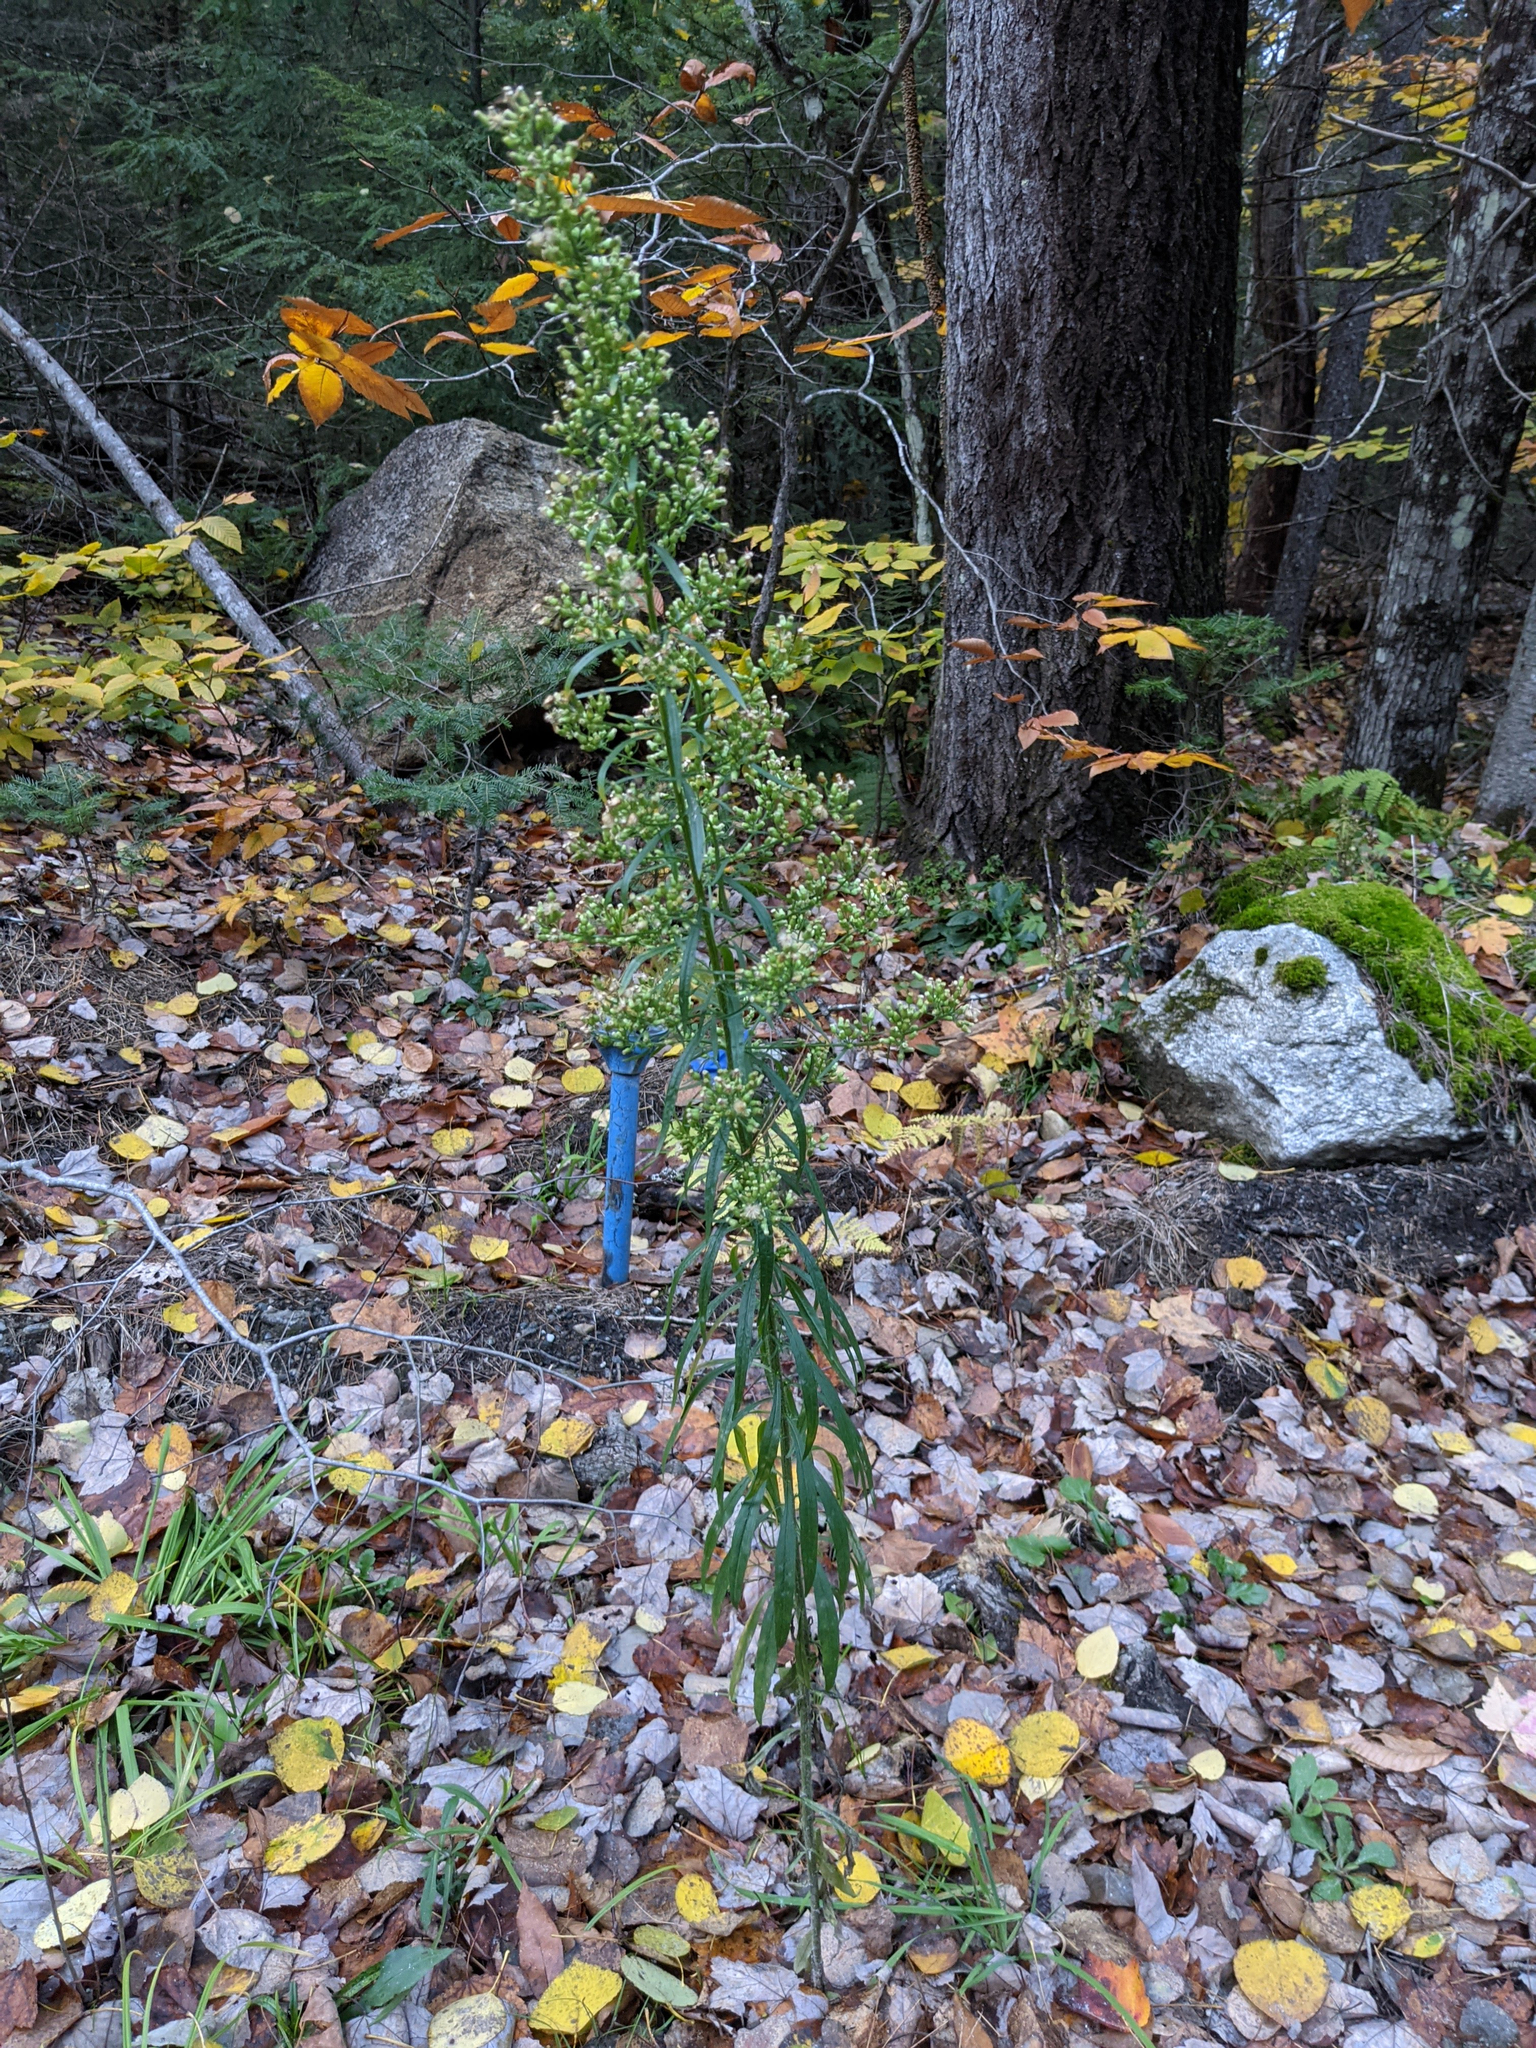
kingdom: Plantae
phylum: Tracheophyta
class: Magnoliopsida
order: Asterales
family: Asteraceae
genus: Erigeron
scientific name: Erigeron canadensis
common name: Canadian fleabane
